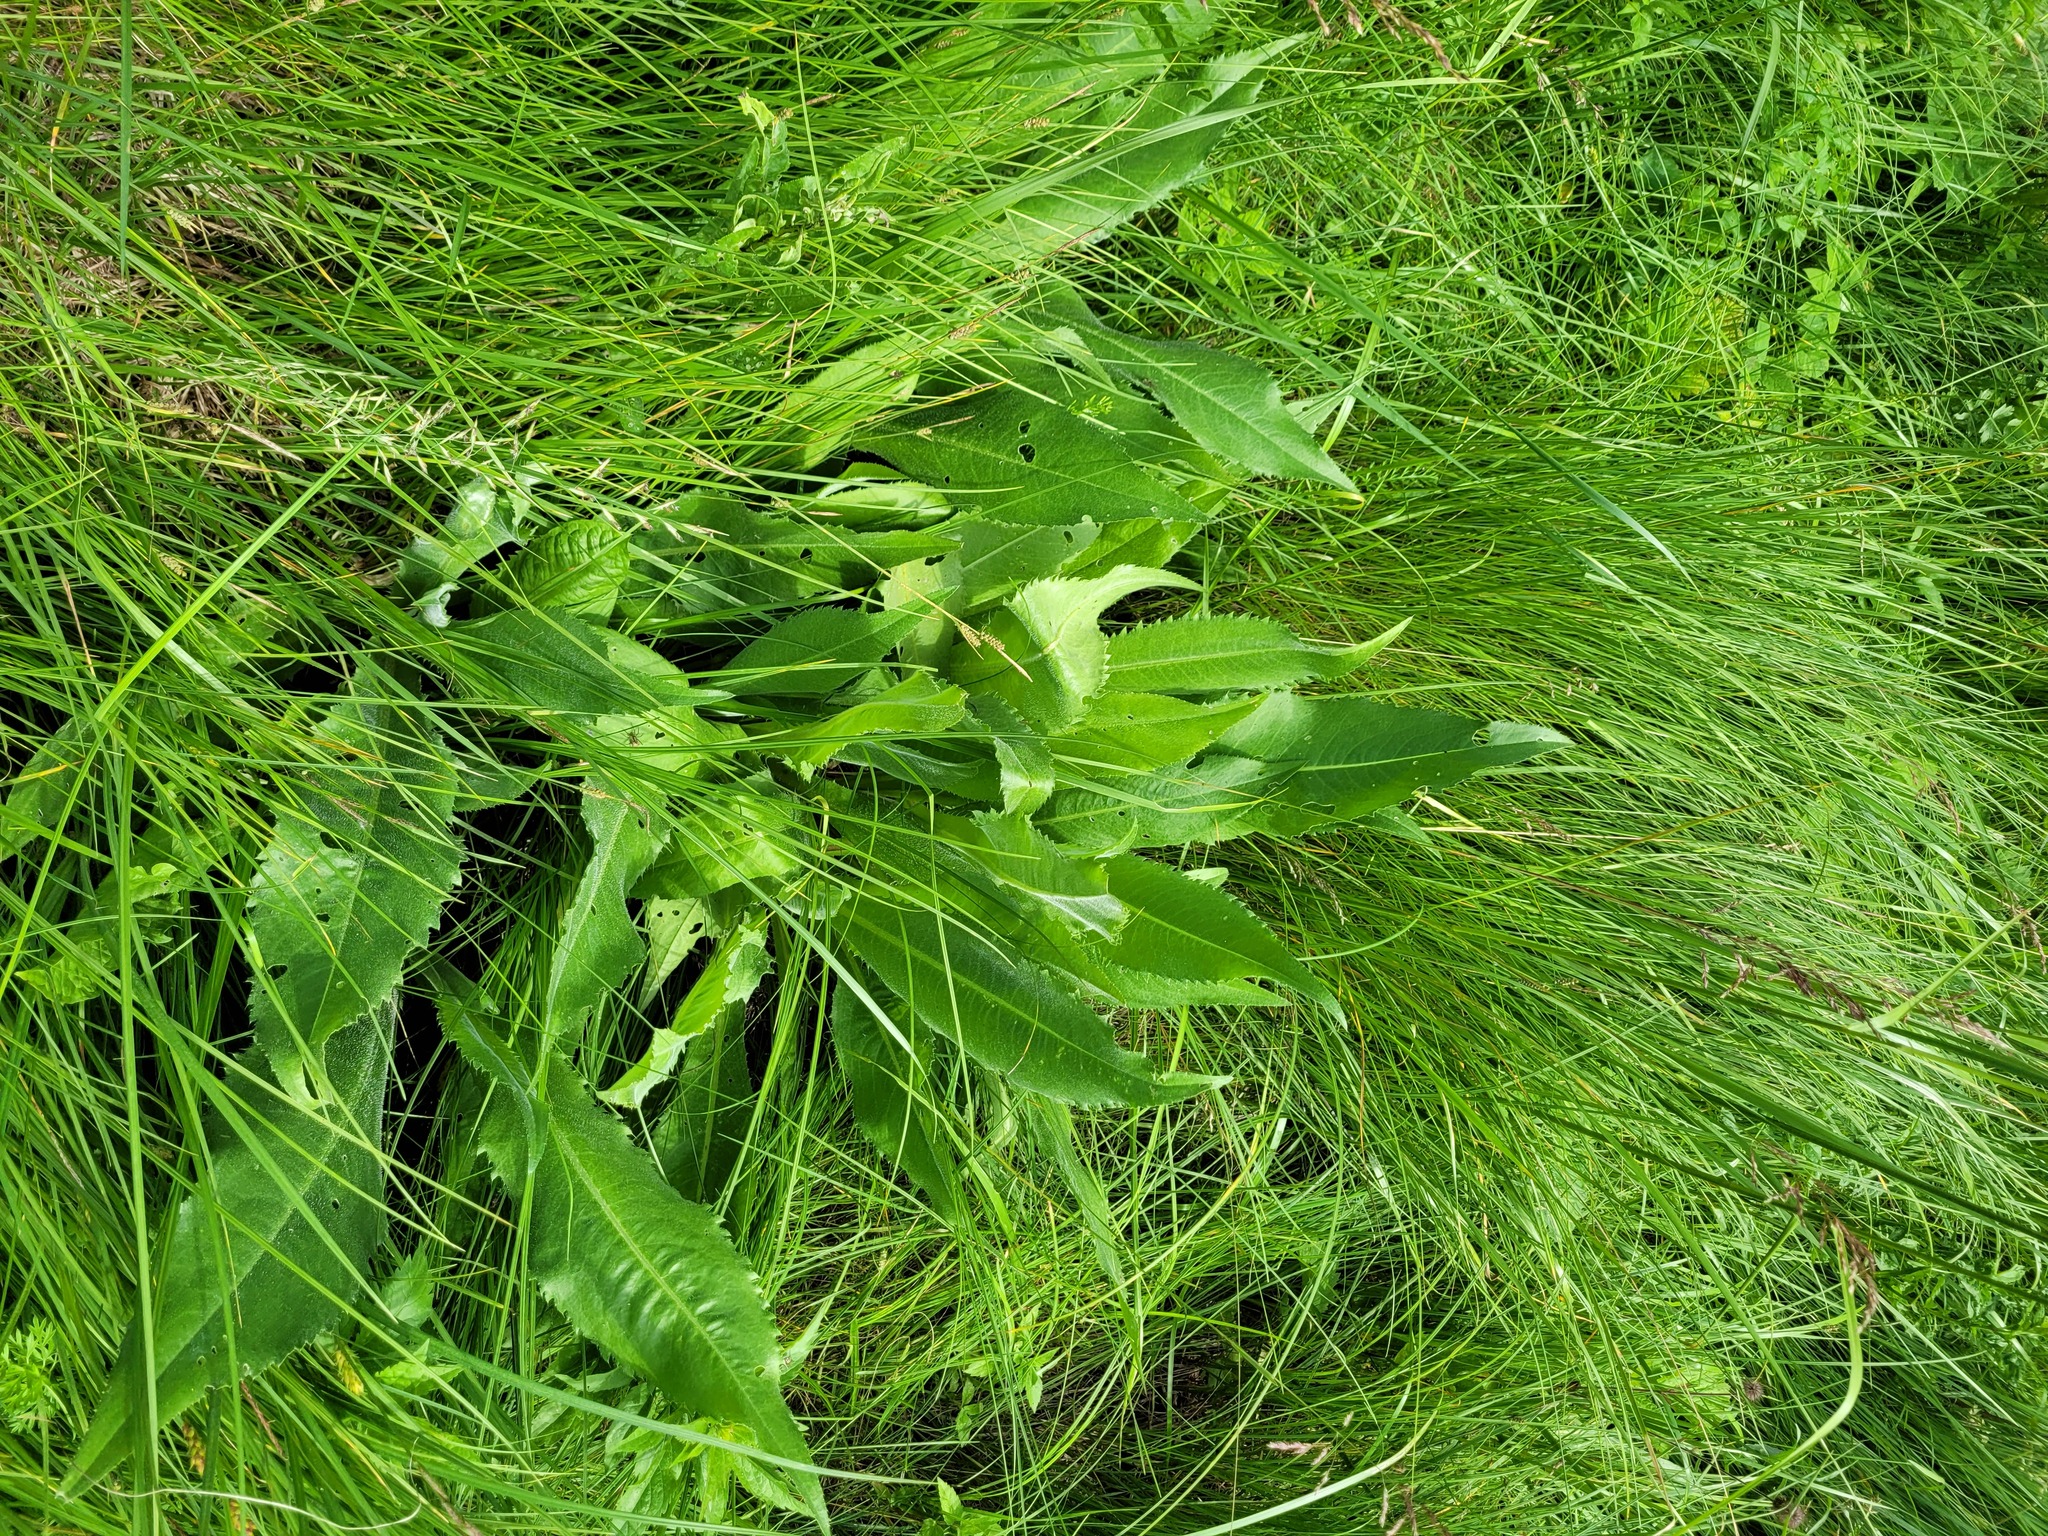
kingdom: Plantae
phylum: Tracheophyta
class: Magnoliopsida
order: Asterales
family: Asteraceae
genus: Cirsium
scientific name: Cirsium canum
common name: Queen anne's thistle
